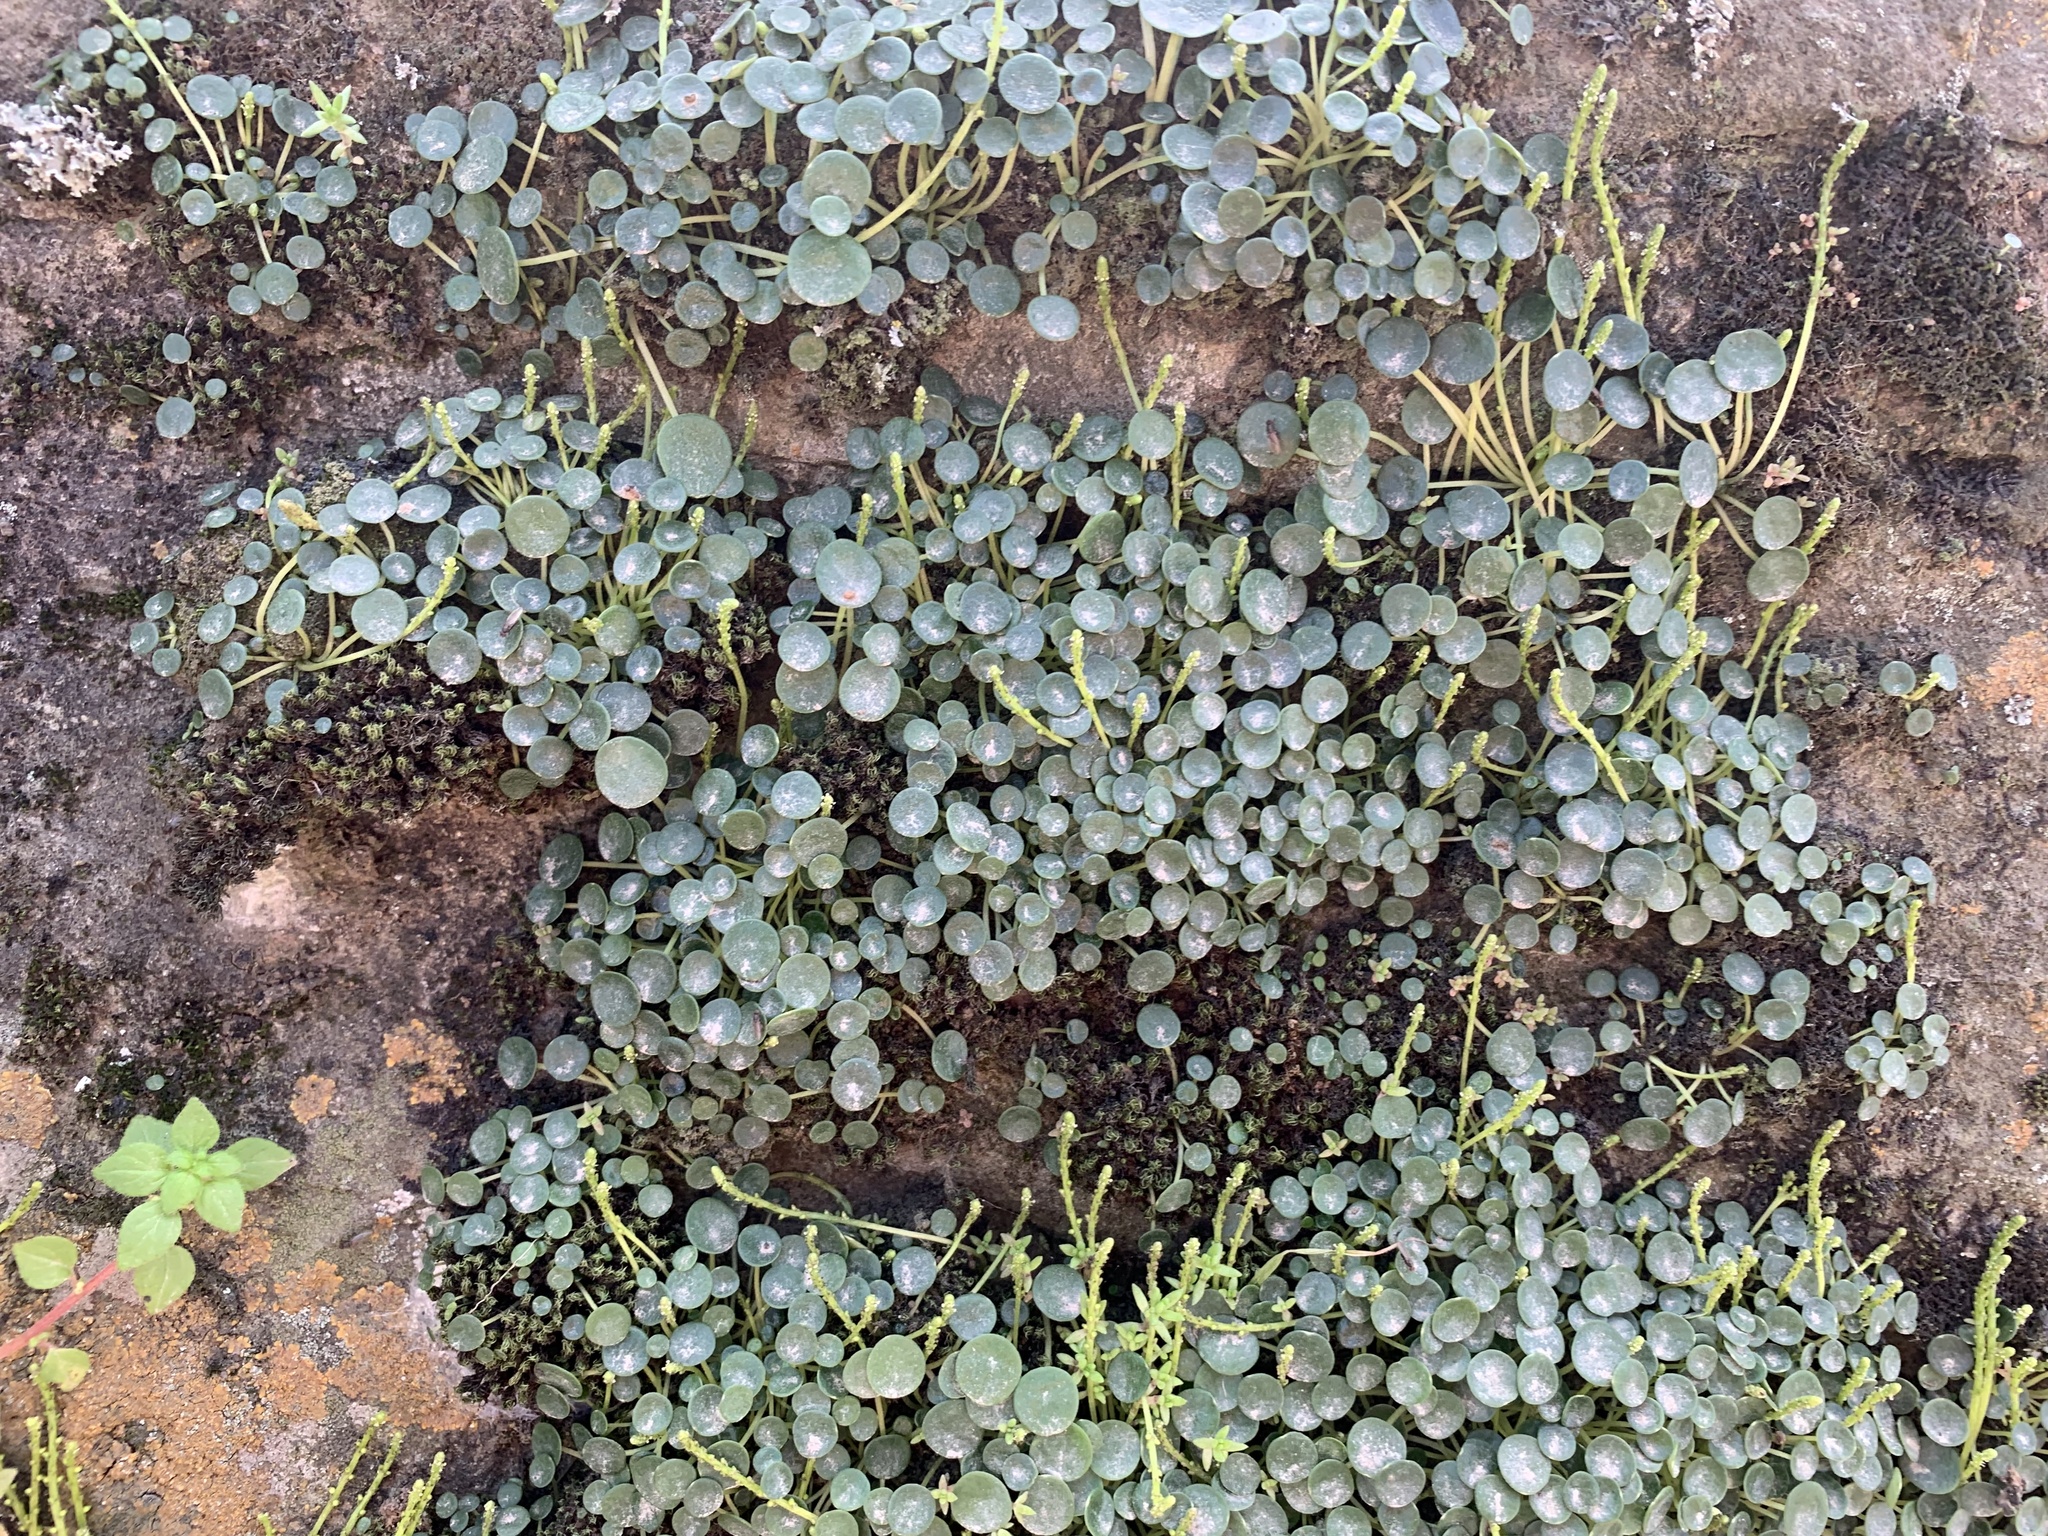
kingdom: Plantae
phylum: Tracheophyta
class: Magnoliopsida
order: Piperales
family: Piperaceae
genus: Peperomia
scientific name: Peperomia umbilicata
